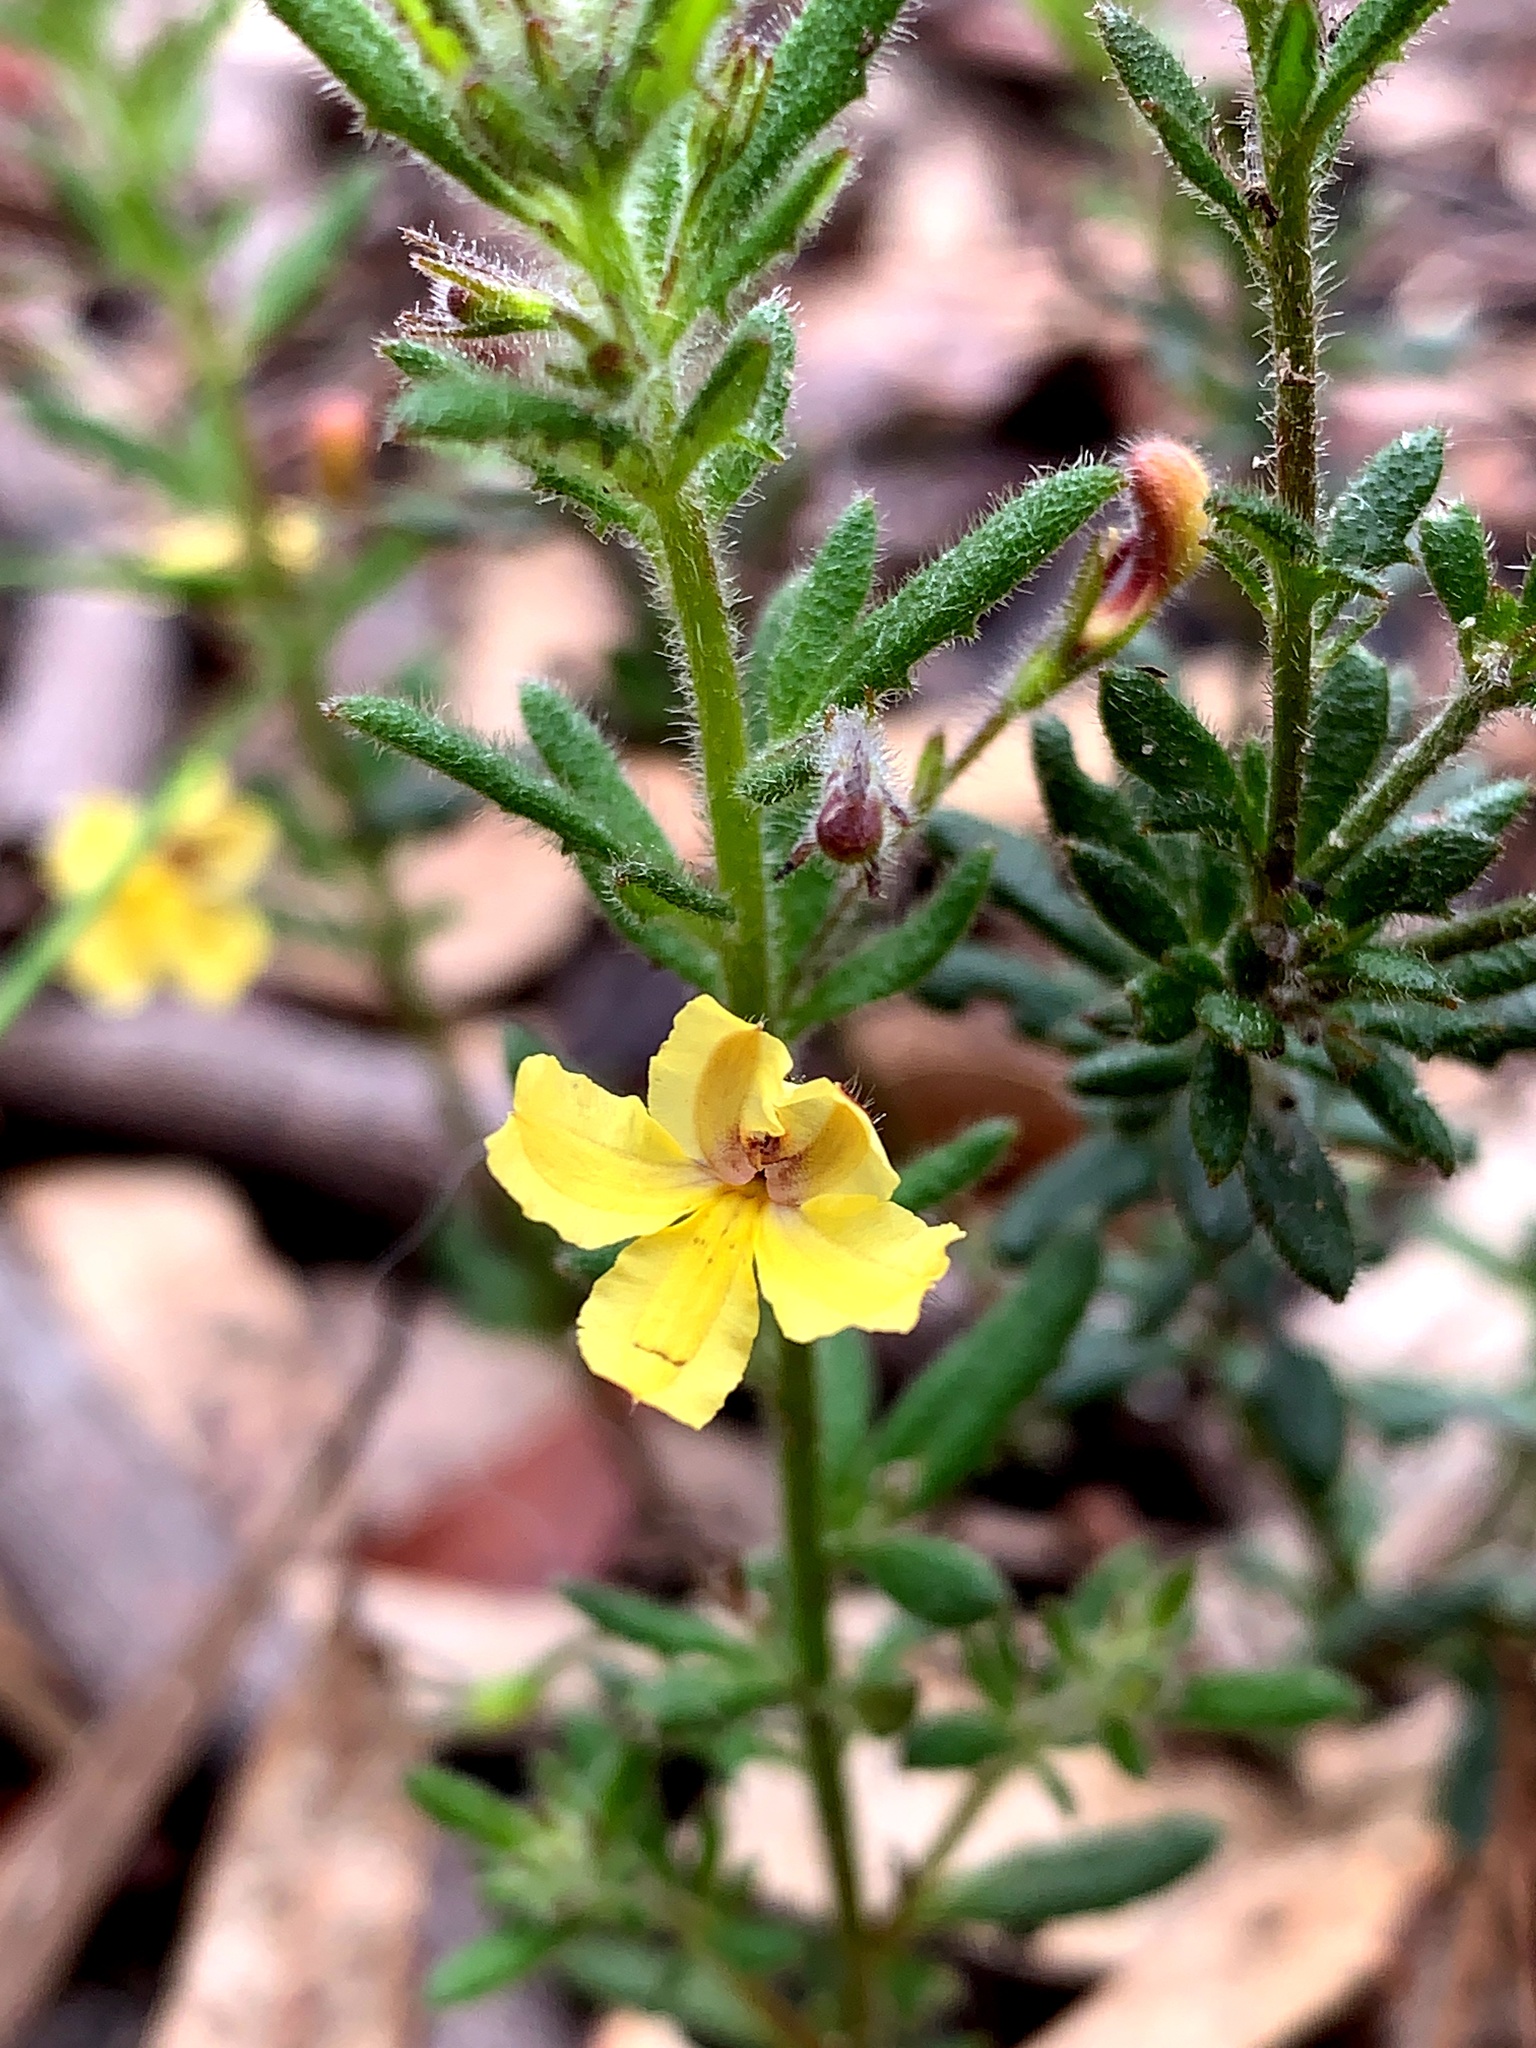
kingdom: Plantae
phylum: Tracheophyta
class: Magnoliopsida
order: Asterales
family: Goodeniaceae
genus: Goodenia
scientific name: Goodenia heterophylla
